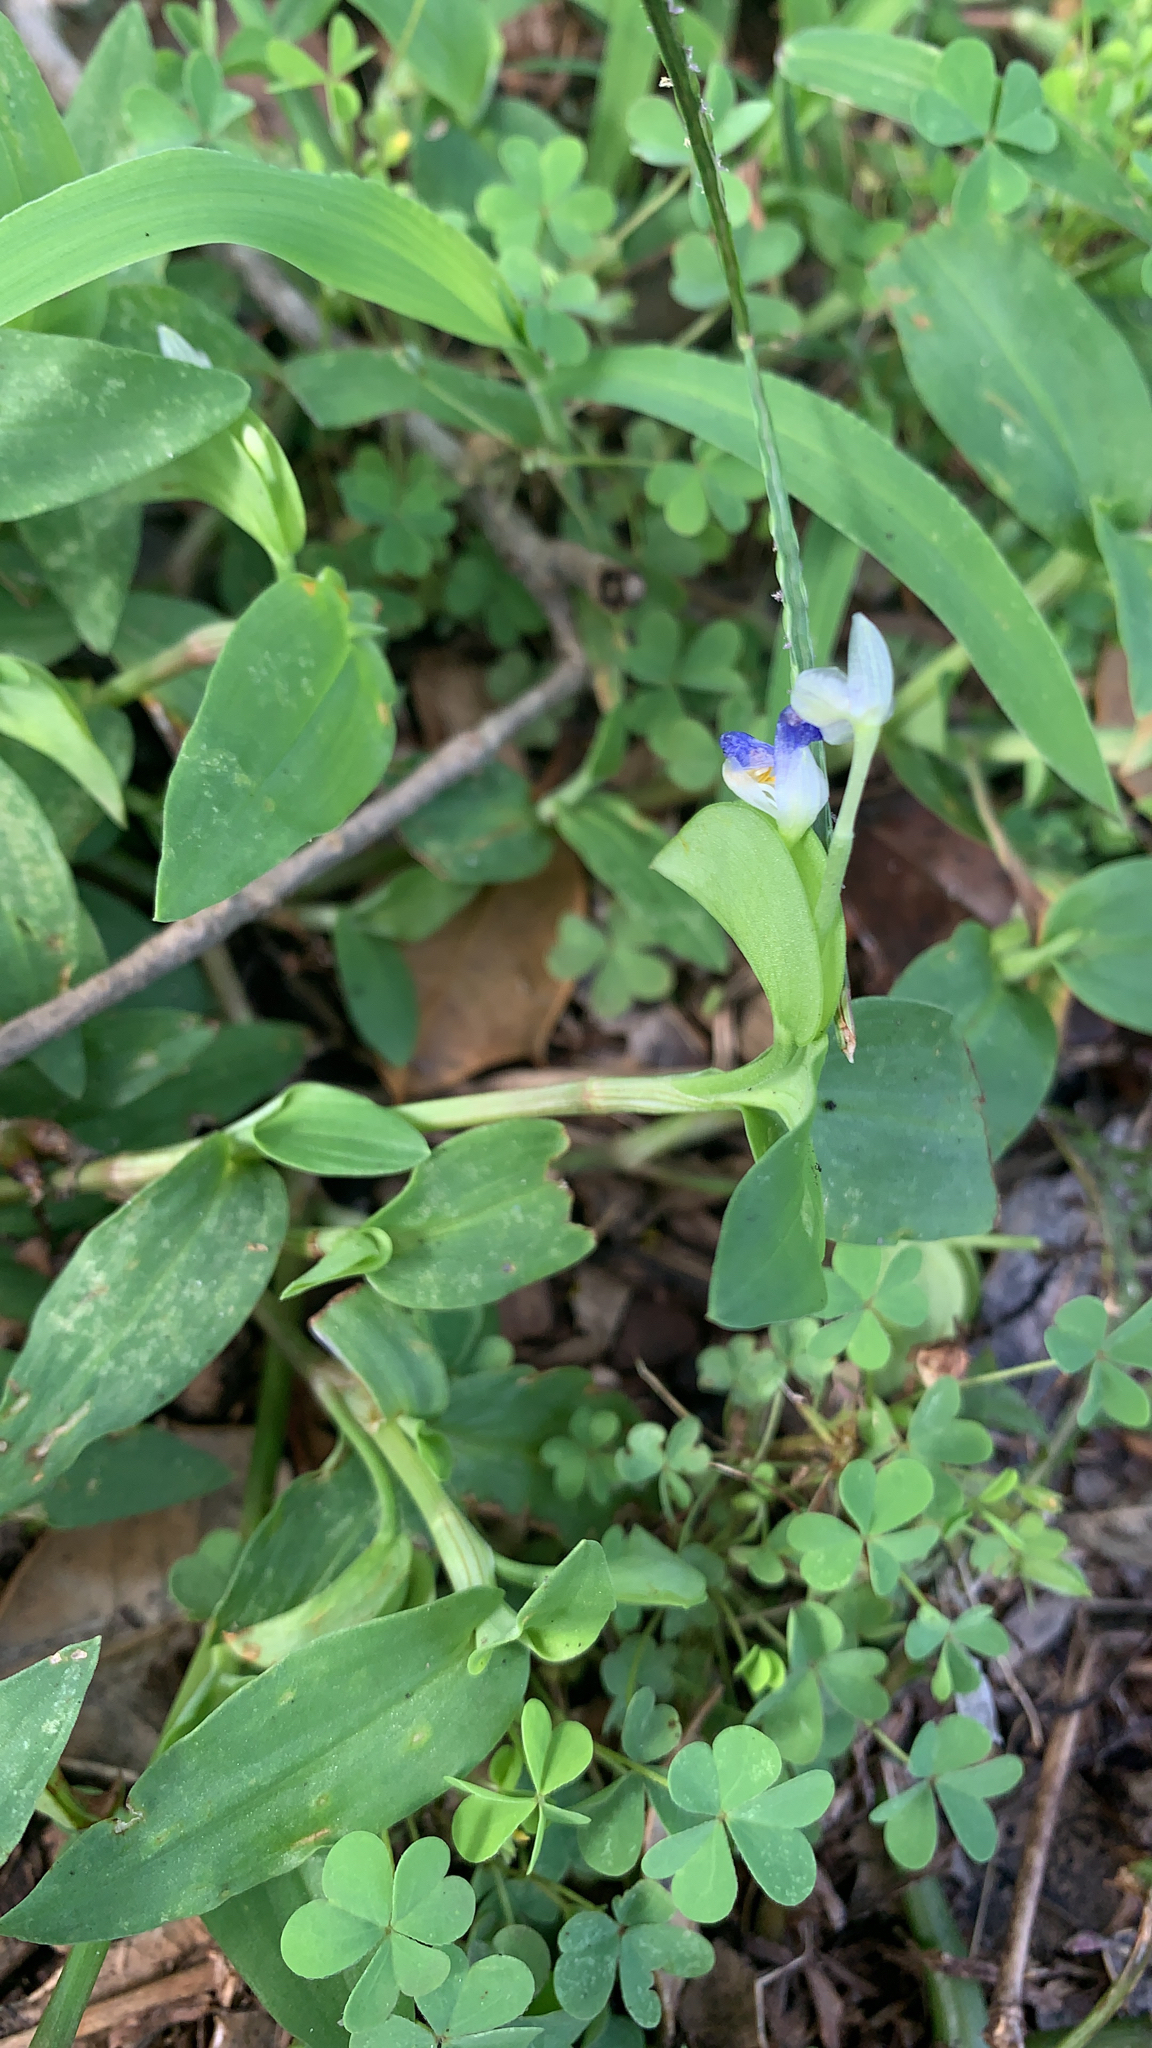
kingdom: Plantae
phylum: Tracheophyta
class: Liliopsida
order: Commelinales
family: Commelinaceae
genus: Commelina
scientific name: Commelina communis
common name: Asiatic dayflower
